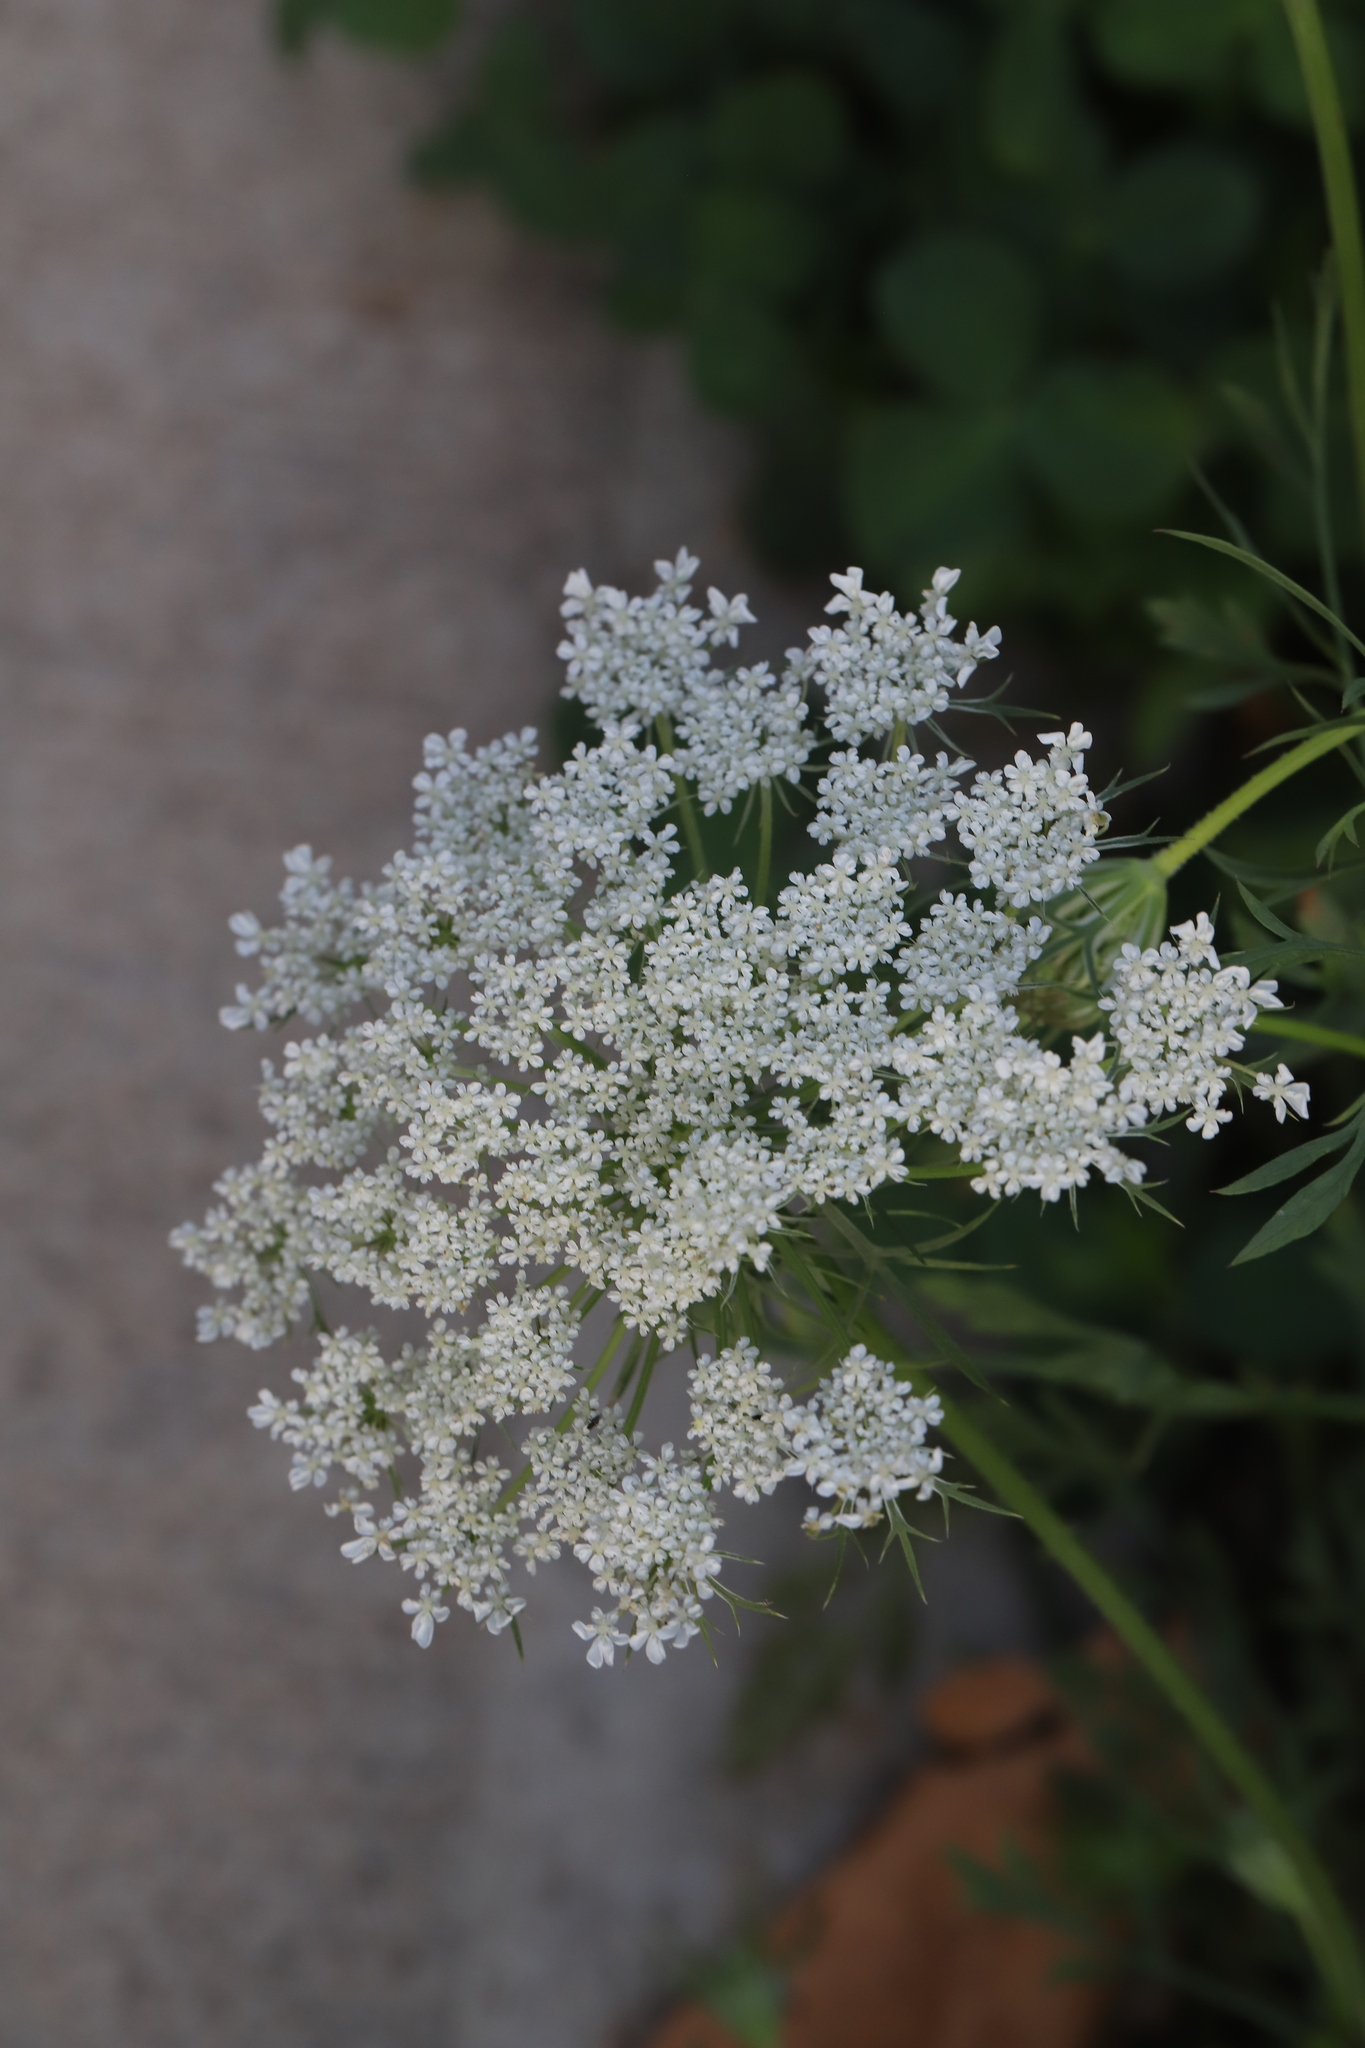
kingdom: Plantae
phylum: Tracheophyta
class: Magnoliopsida
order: Apiales
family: Apiaceae
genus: Daucus
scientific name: Daucus carota
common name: Wild carrot
